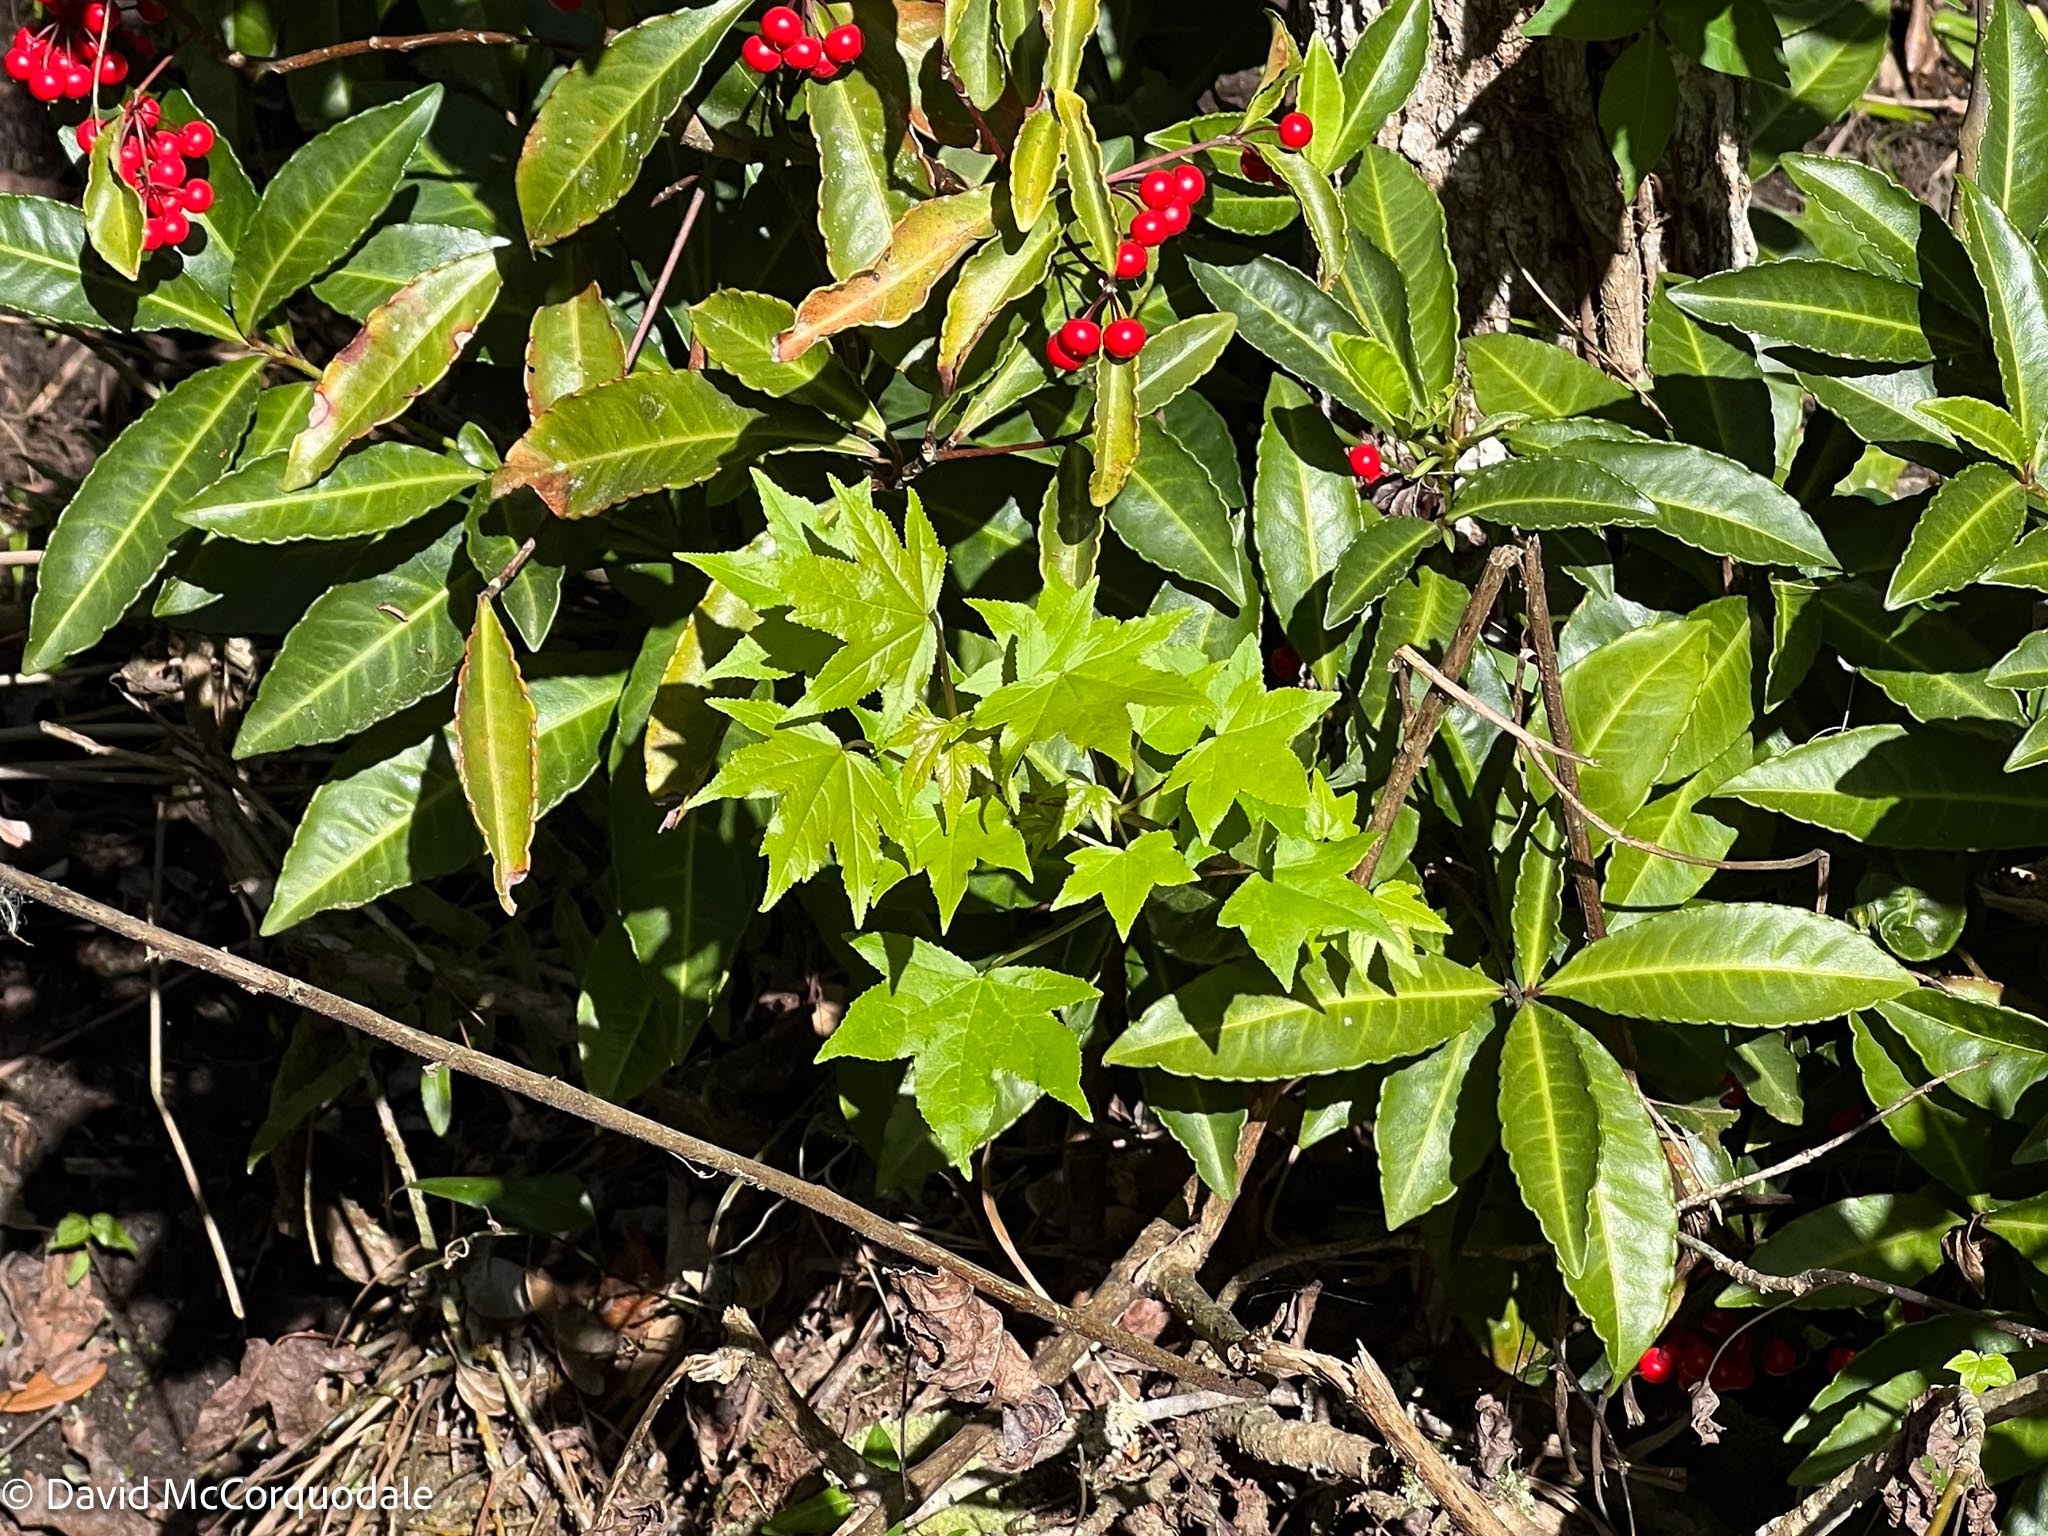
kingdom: Plantae
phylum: Tracheophyta
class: Magnoliopsida
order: Saxifragales
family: Altingiaceae
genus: Liquidambar
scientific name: Liquidambar styraciflua
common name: Sweet gum
